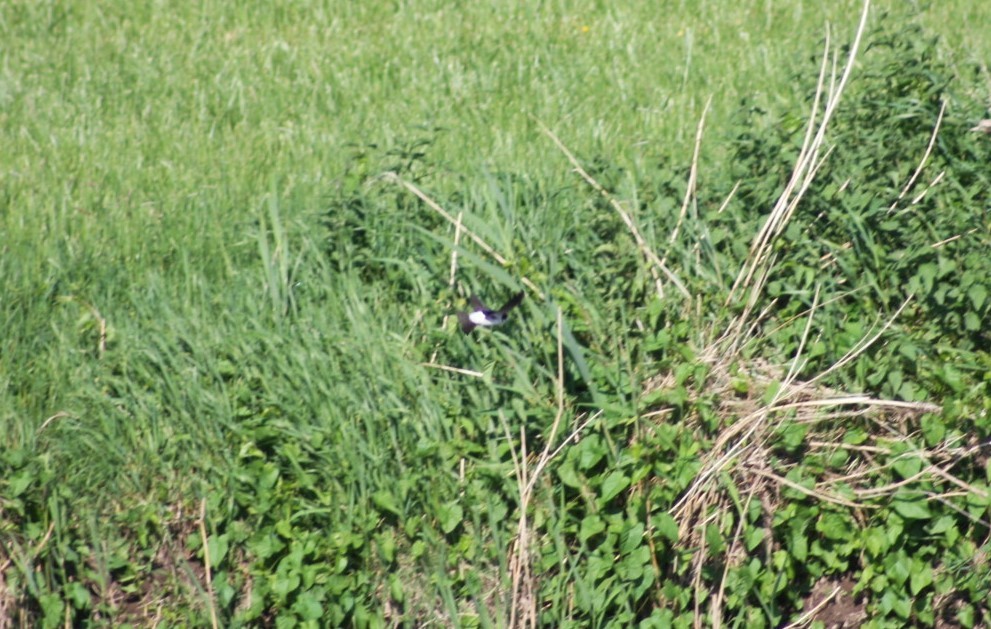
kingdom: Animalia
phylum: Chordata
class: Aves
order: Passeriformes
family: Hirundinidae
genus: Delichon
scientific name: Delichon urbicum
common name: Common house martin
